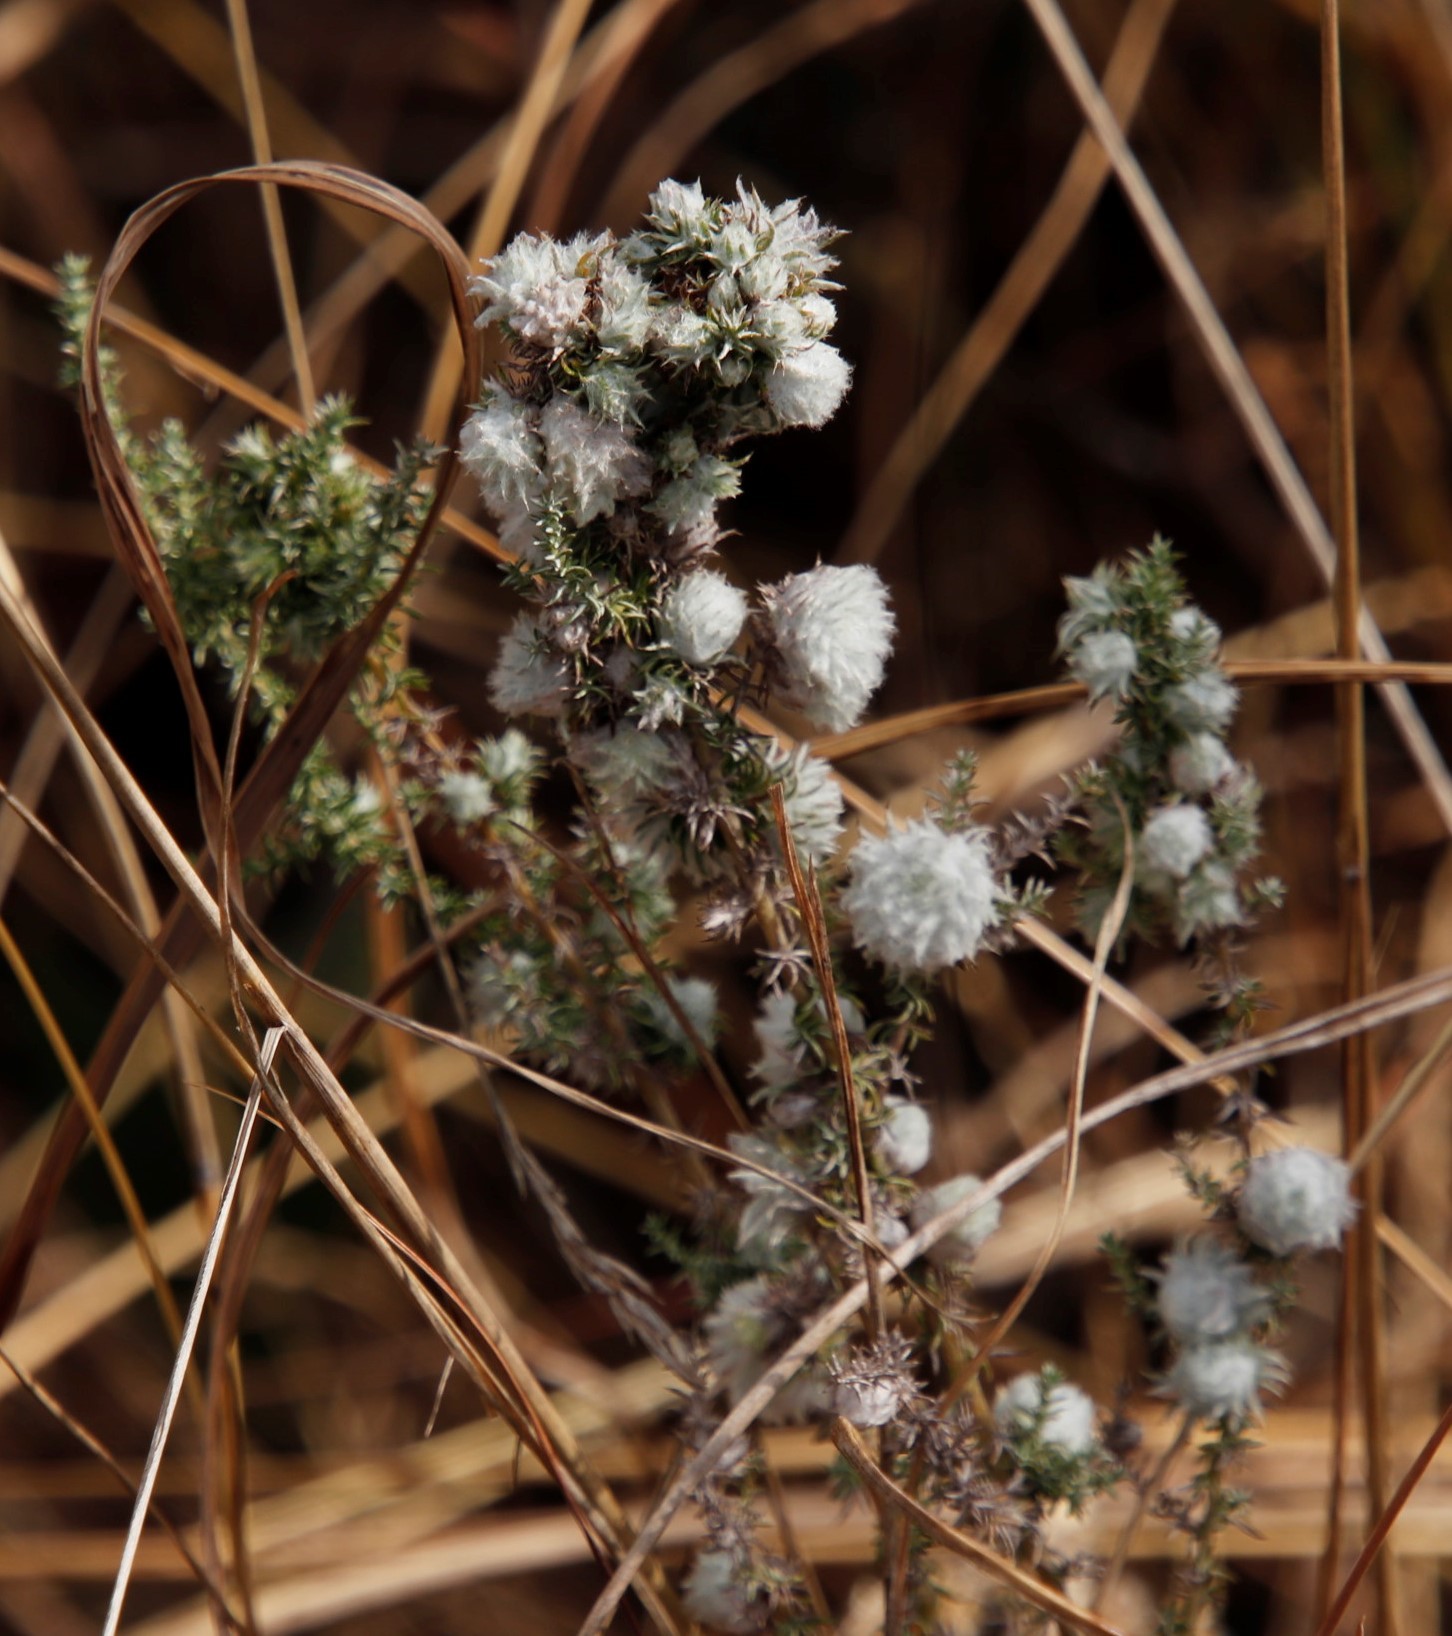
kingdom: Animalia
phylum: Arthropoda
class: Insecta
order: Diptera
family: Cecidomyiidae
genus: Schizomyia
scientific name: Schizomyia scheppigi
